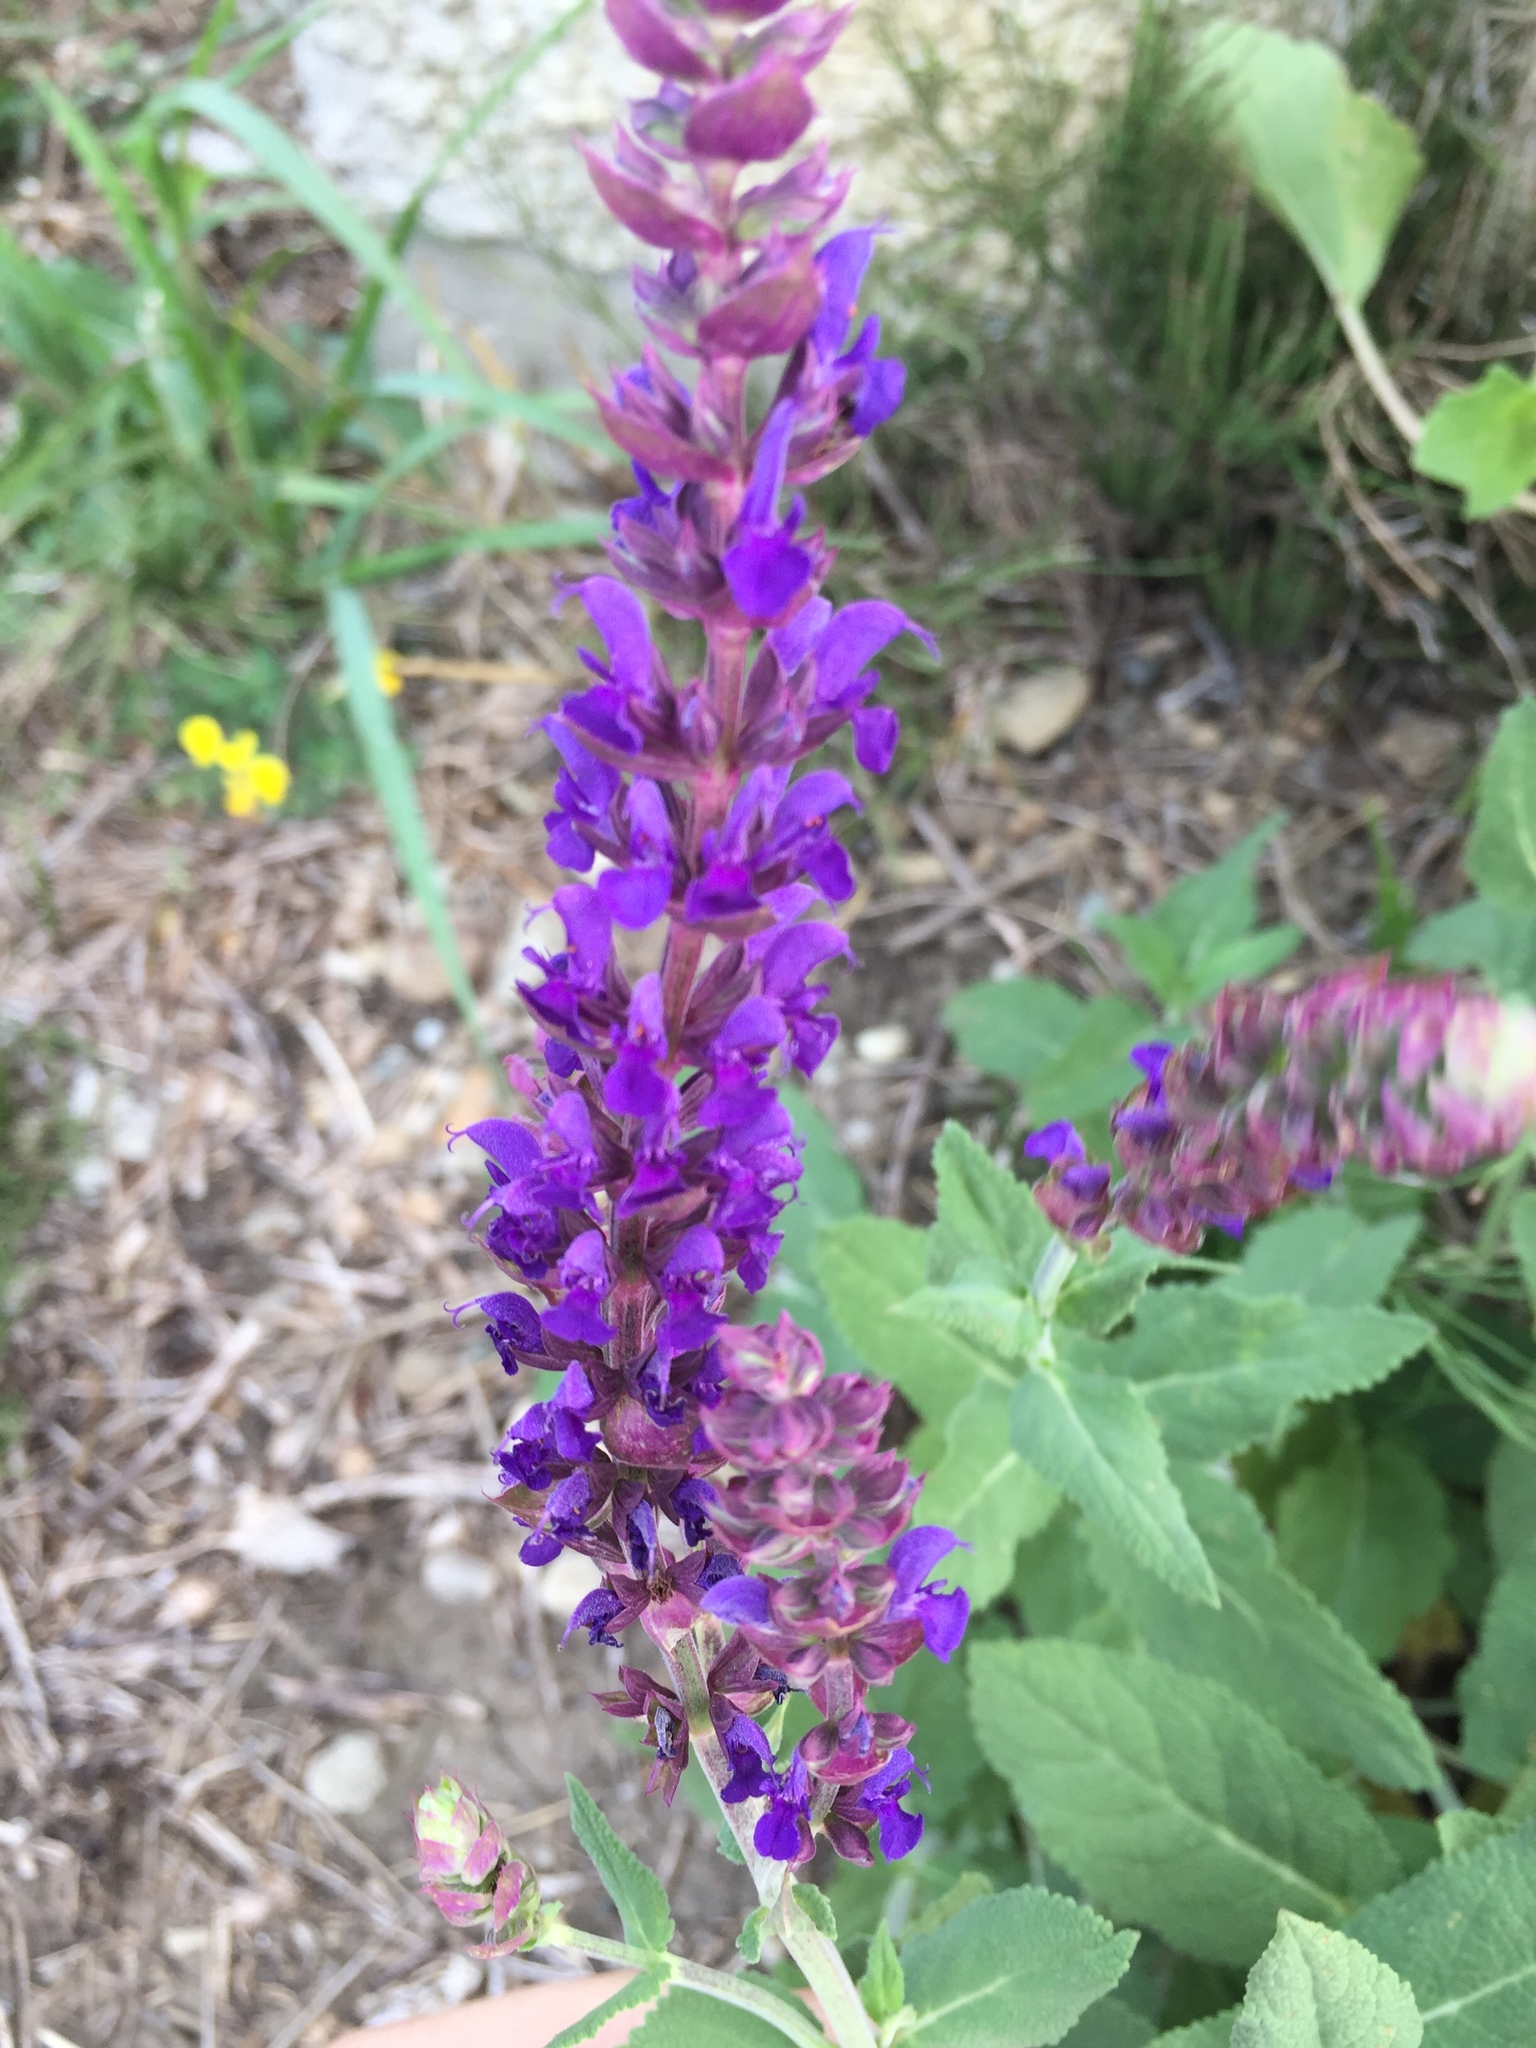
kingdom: Plantae
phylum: Tracheophyta
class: Magnoliopsida
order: Lamiales
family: Lamiaceae
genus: Salvia
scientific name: Salvia nemorosa
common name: Balkan clary
